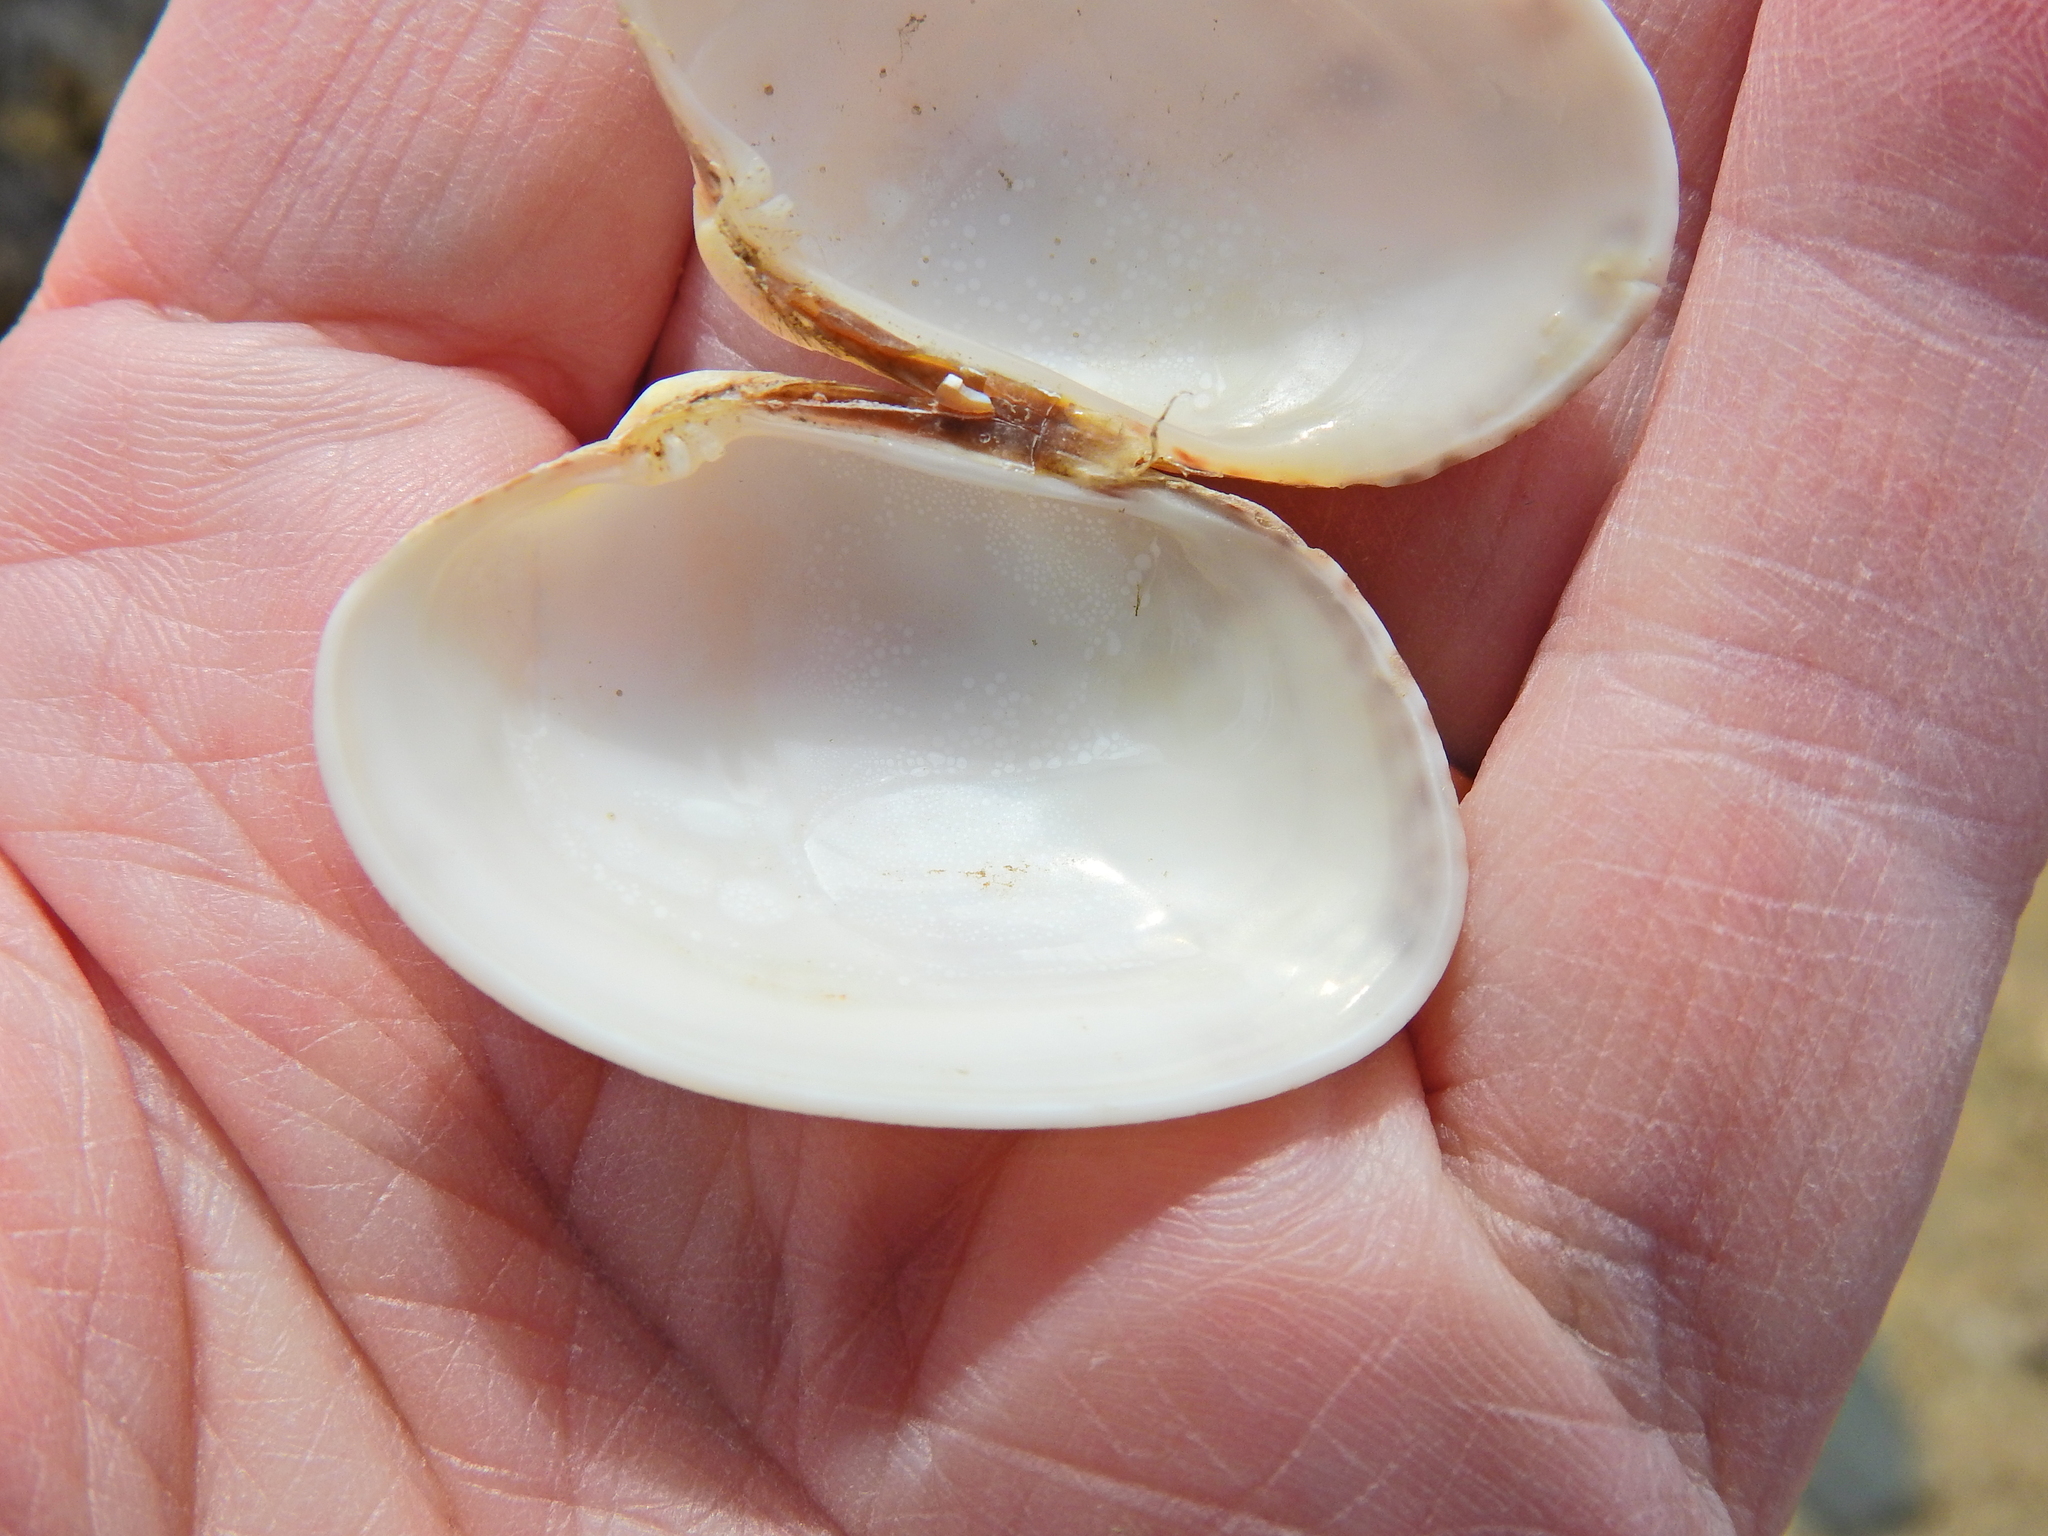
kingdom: Animalia
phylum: Mollusca
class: Bivalvia
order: Venerida
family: Veneridae
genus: Venerupis
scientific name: Venerupis corrugata
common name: Pullet carpet shell
